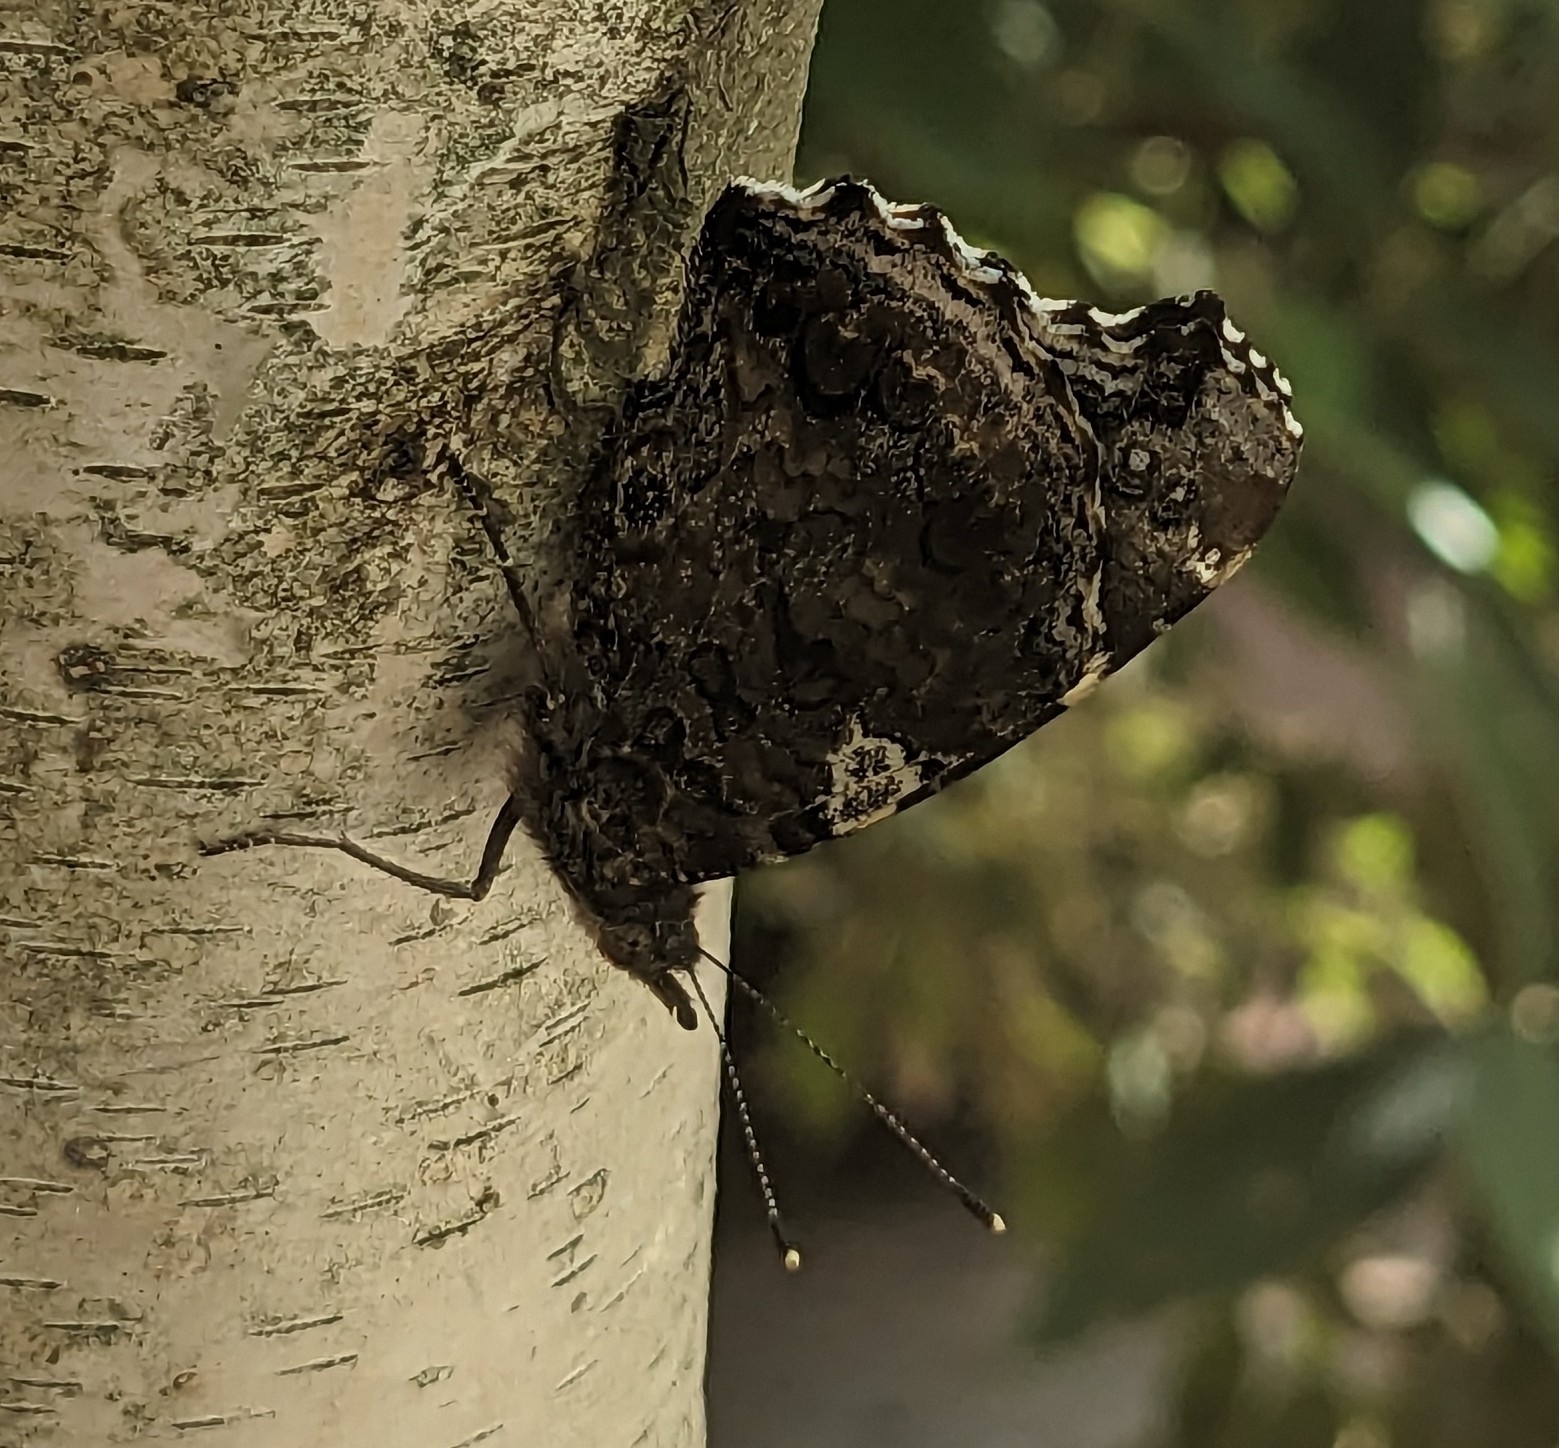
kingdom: Animalia
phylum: Arthropoda
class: Insecta
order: Lepidoptera
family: Nymphalidae
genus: Vanessa
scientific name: Vanessa atalanta
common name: Red admiral
